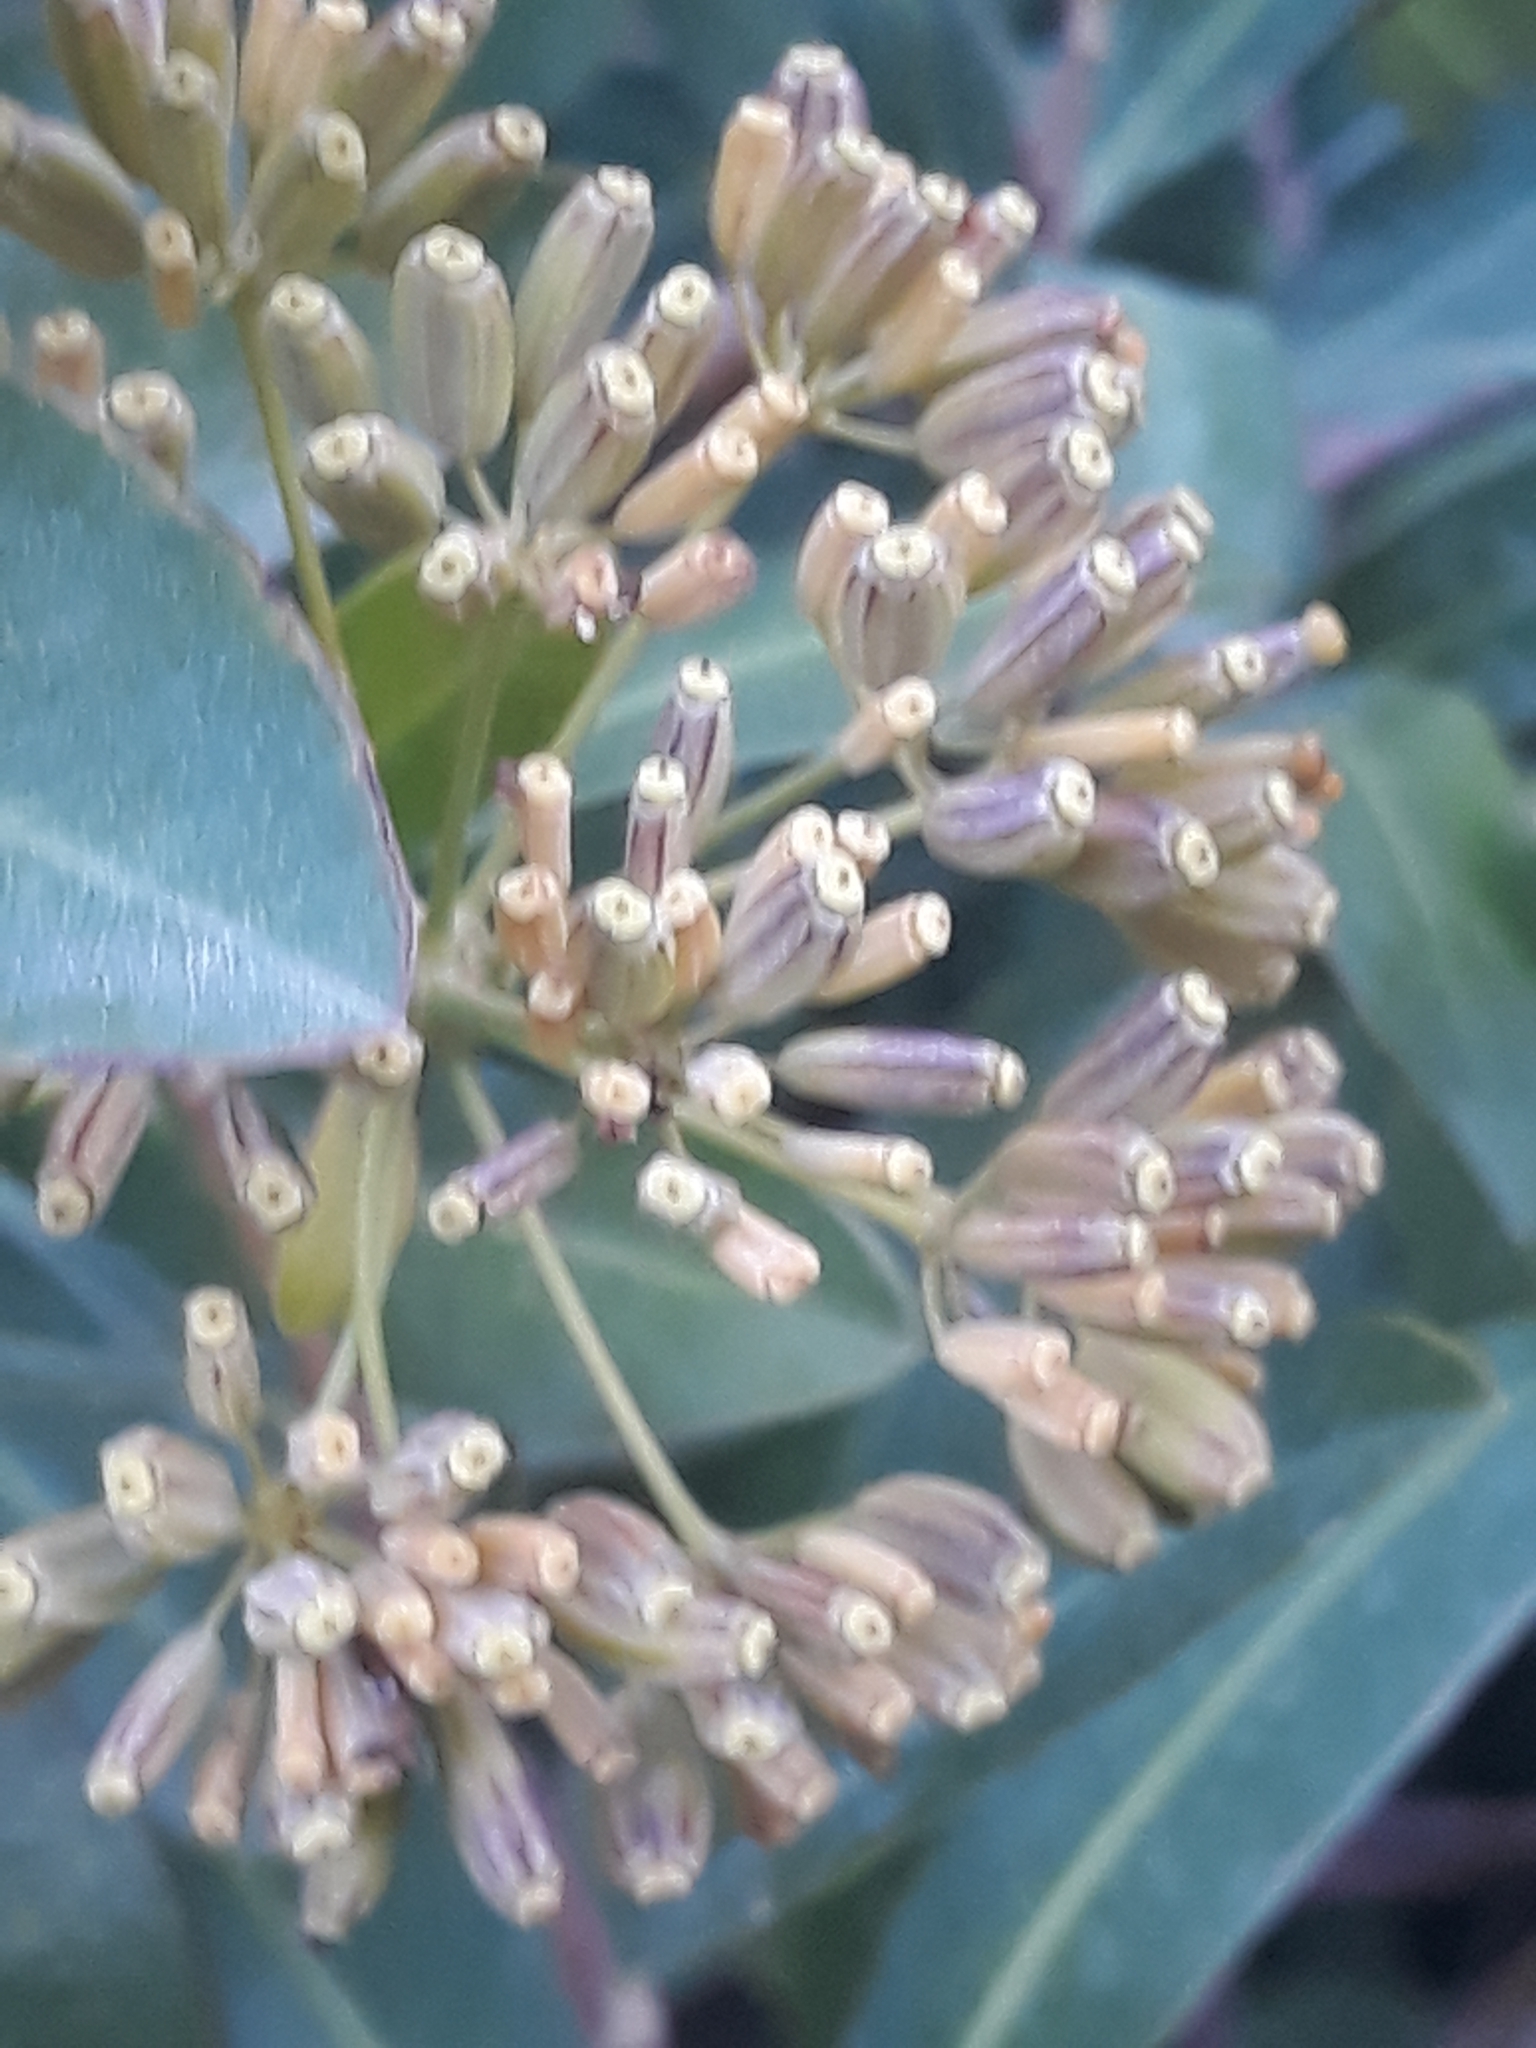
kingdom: Plantae
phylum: Tracheophyta
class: Magnoliopsida
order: Apiales
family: Apiaceae
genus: Bupleurum
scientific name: Bupleurum fruticosum
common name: Shrubby hare's-ear
